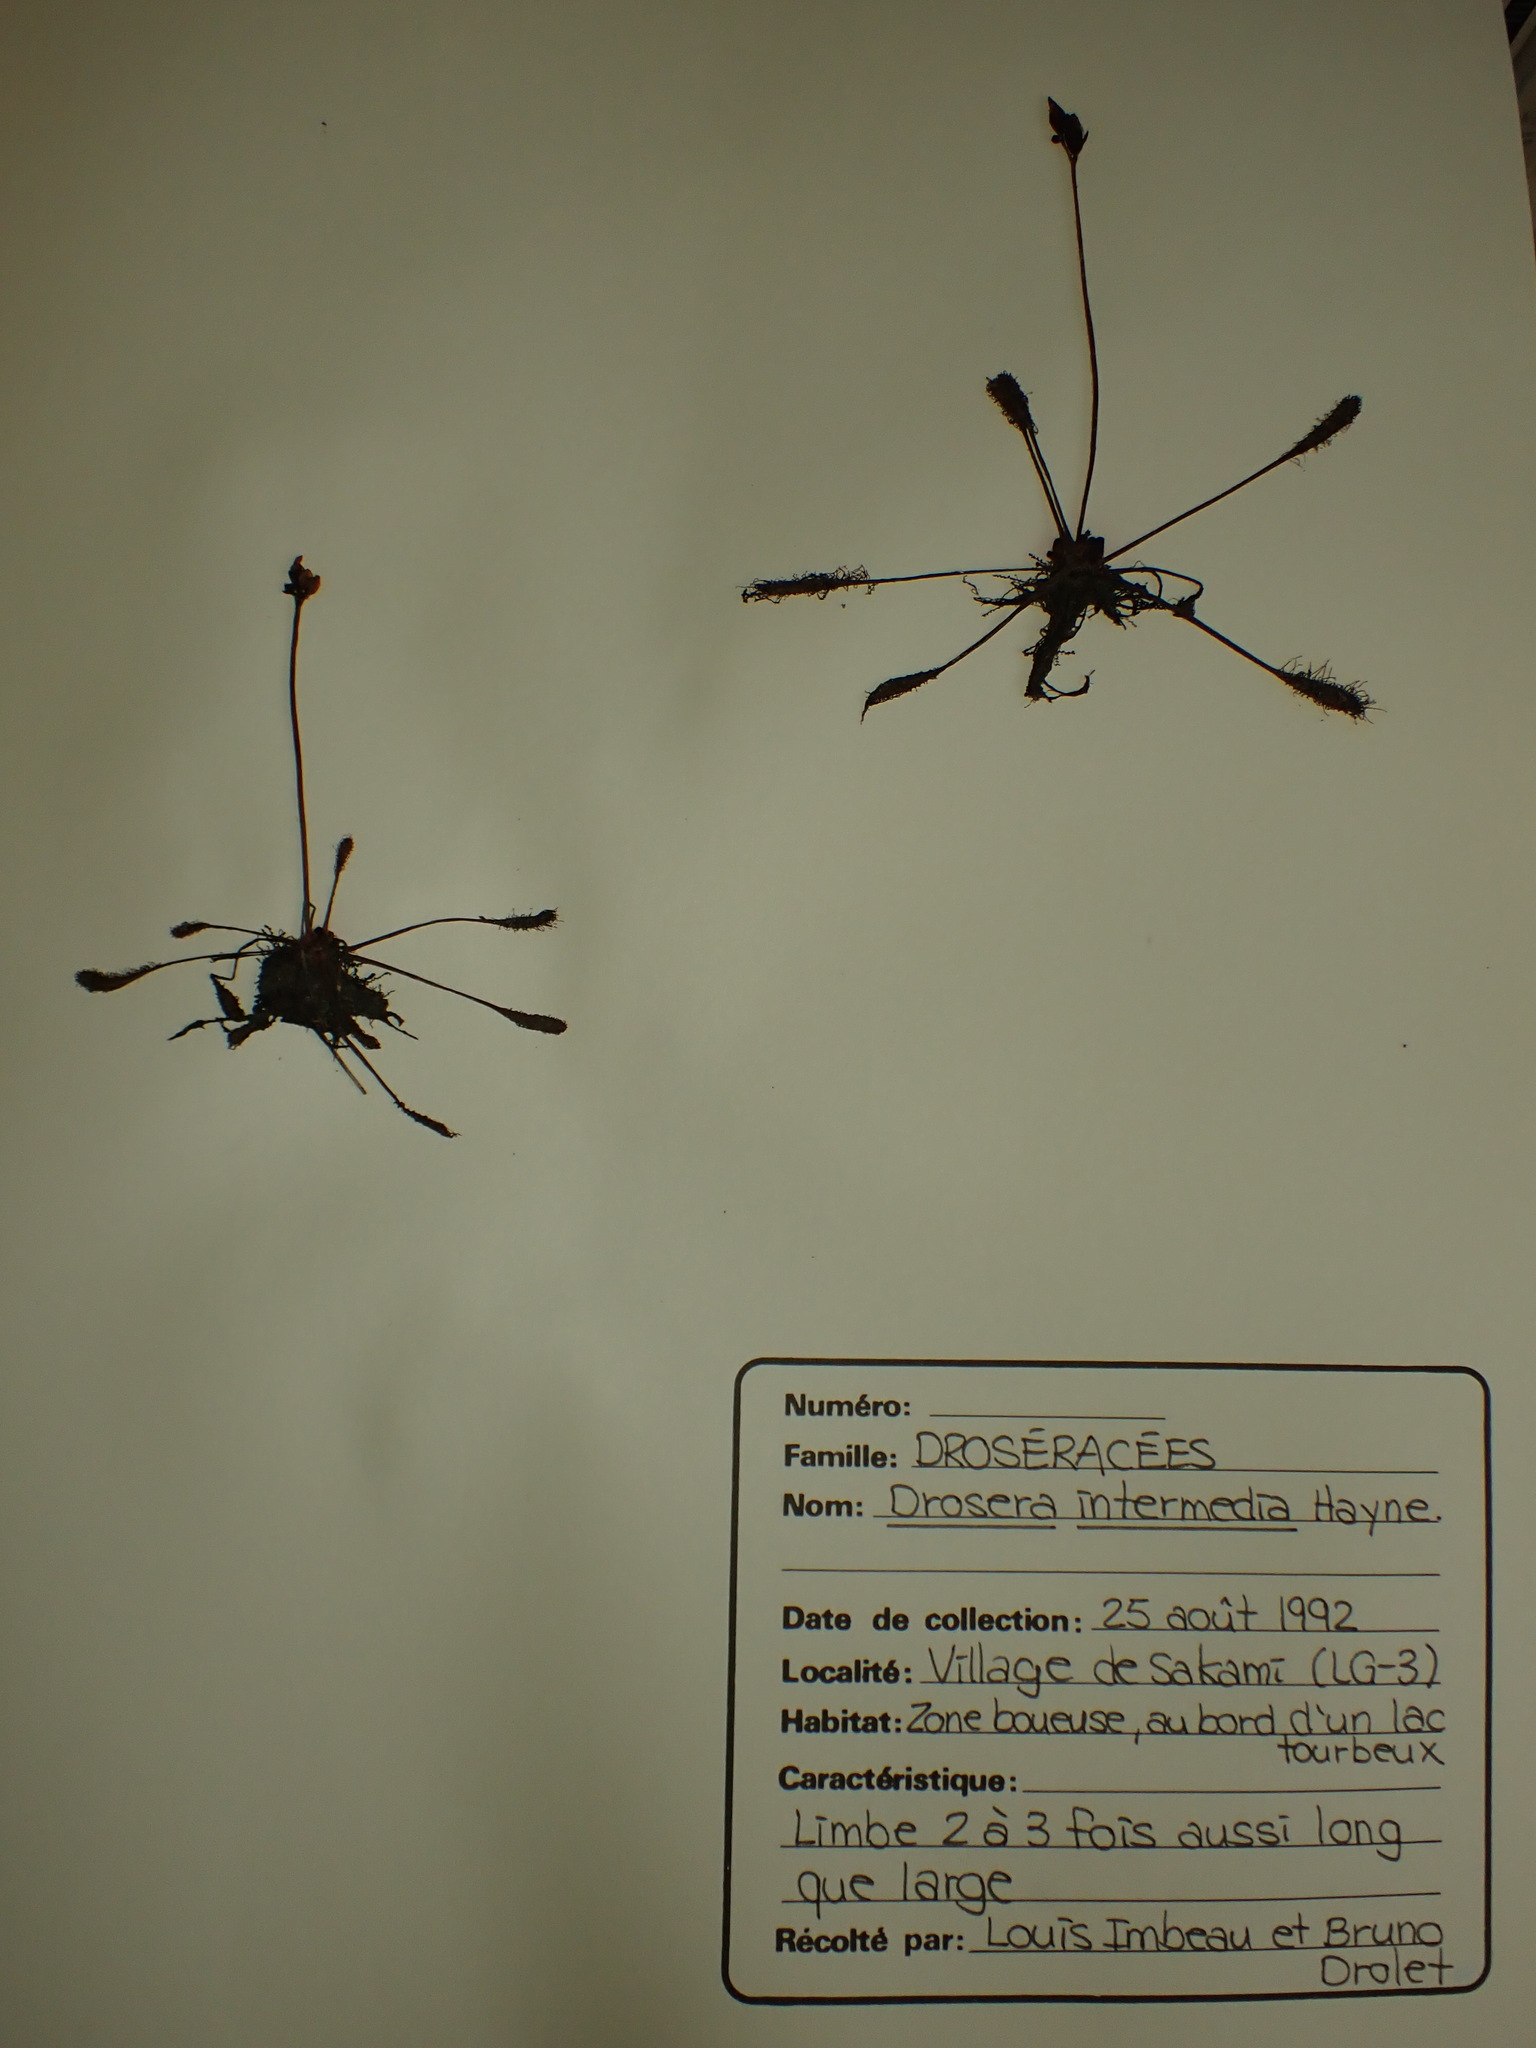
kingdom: Plantae
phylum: Tracheophyta
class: Magnoliopsida
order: Caryophyllales
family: Droseraceae
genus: Drosera
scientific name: Drosera anglica
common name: Great sundew
